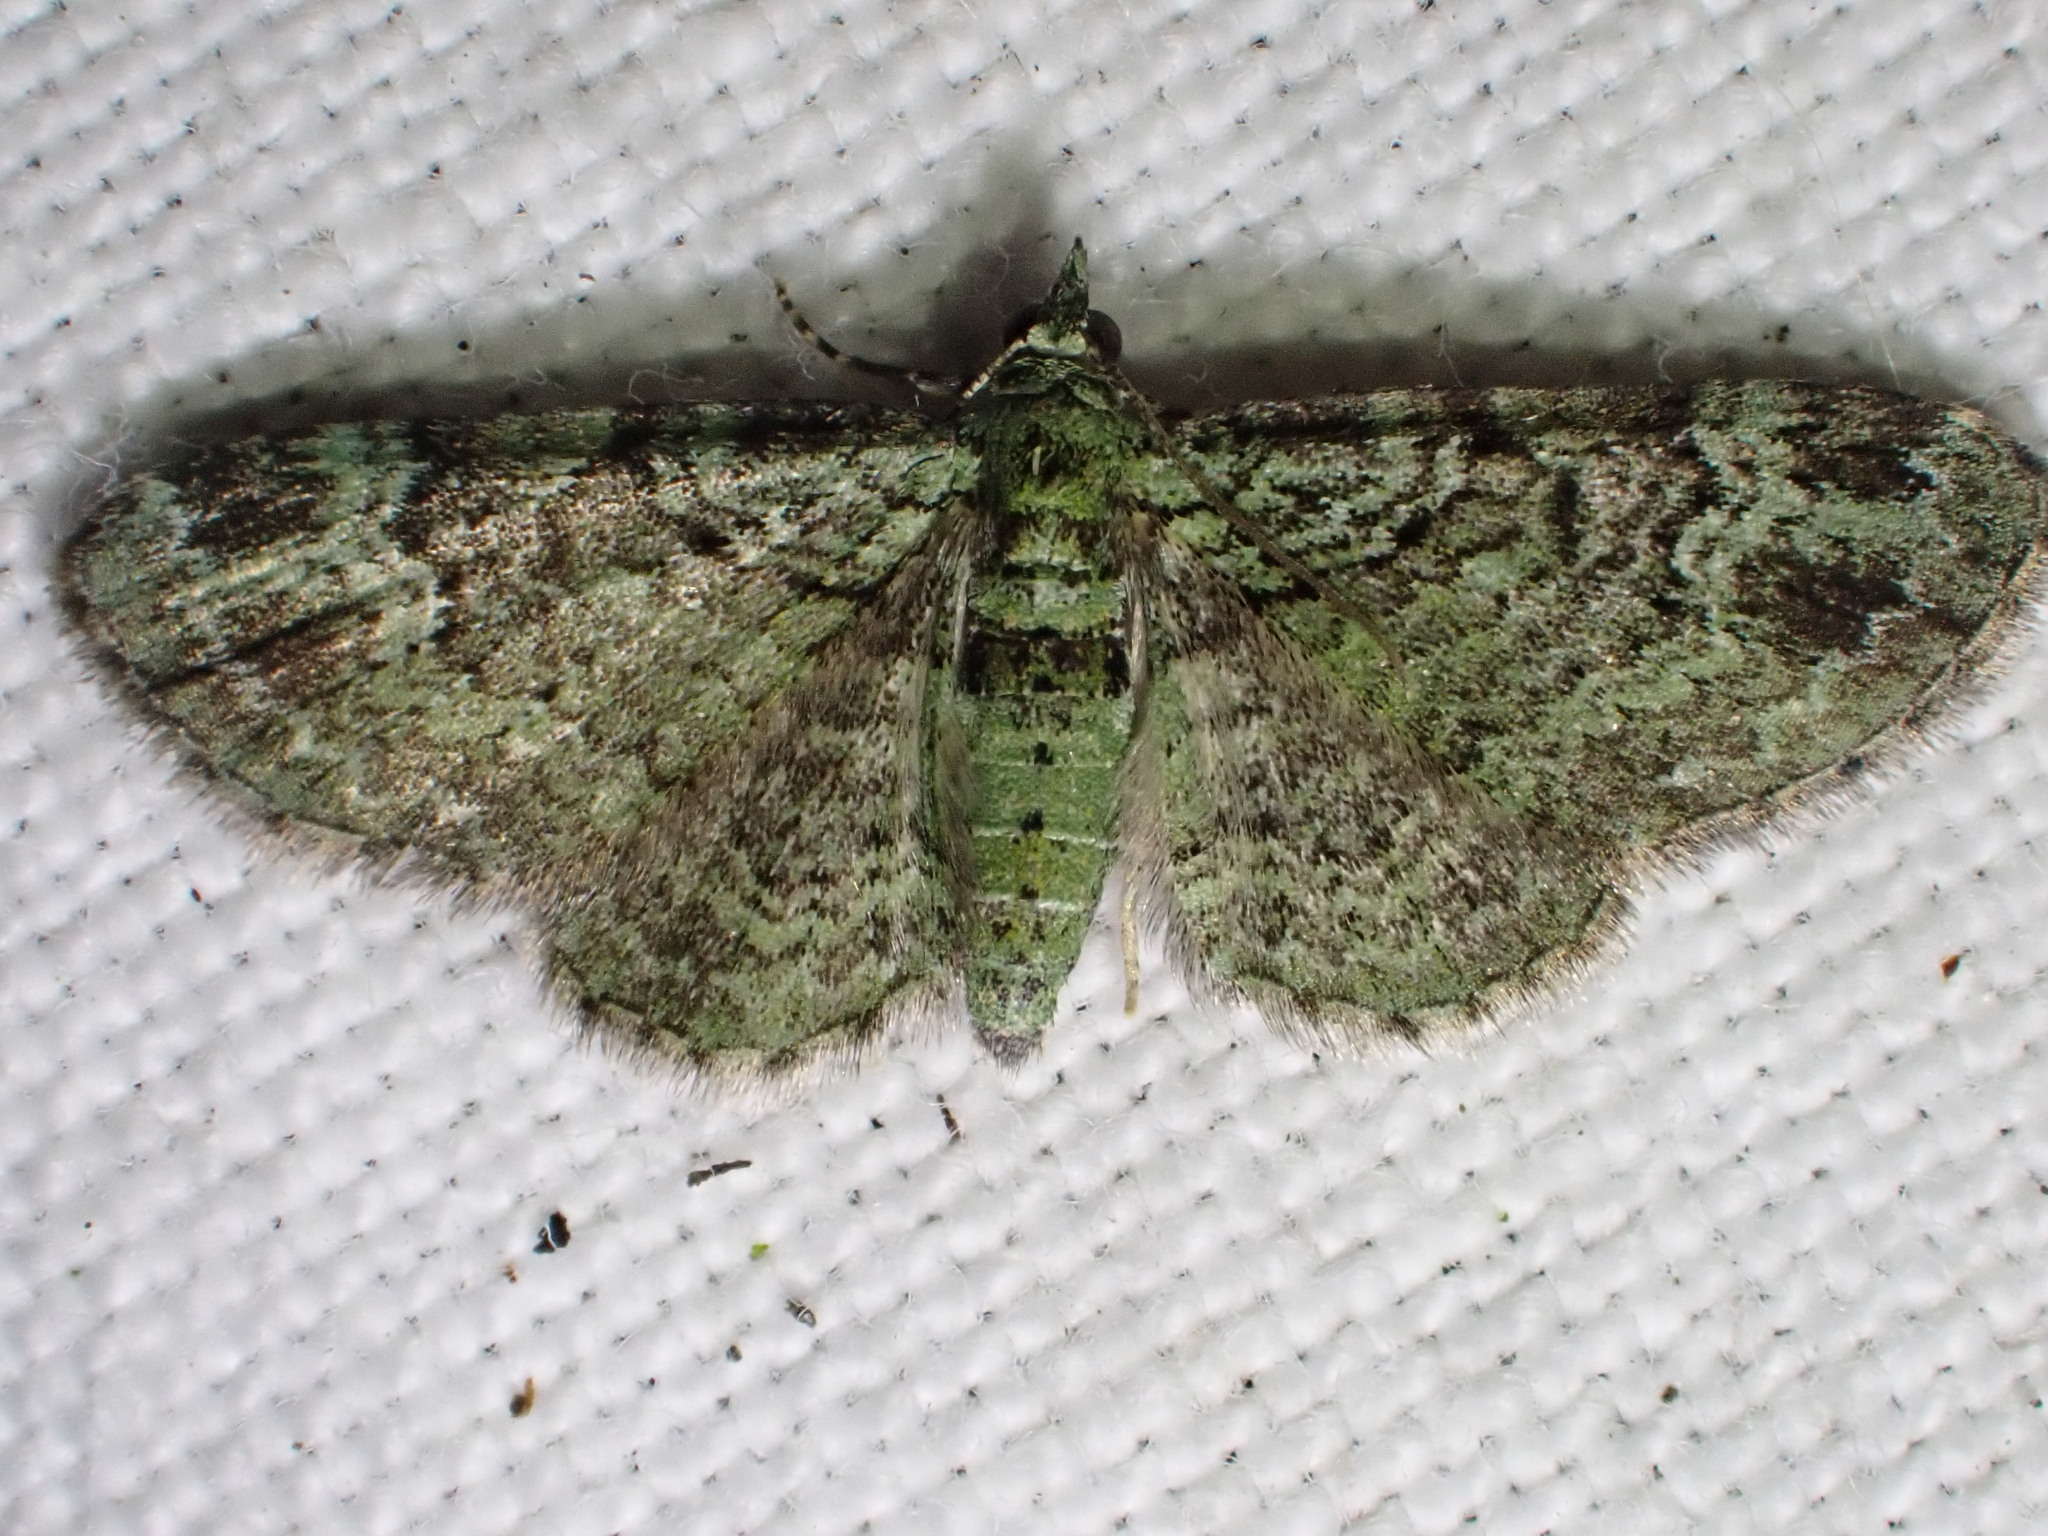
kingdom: Animalia
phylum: Arthropoda
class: Insecta
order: Lepidoptera
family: Geometridae
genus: Pasiphila
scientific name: Pasiphila rectangulata
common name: Green pug
